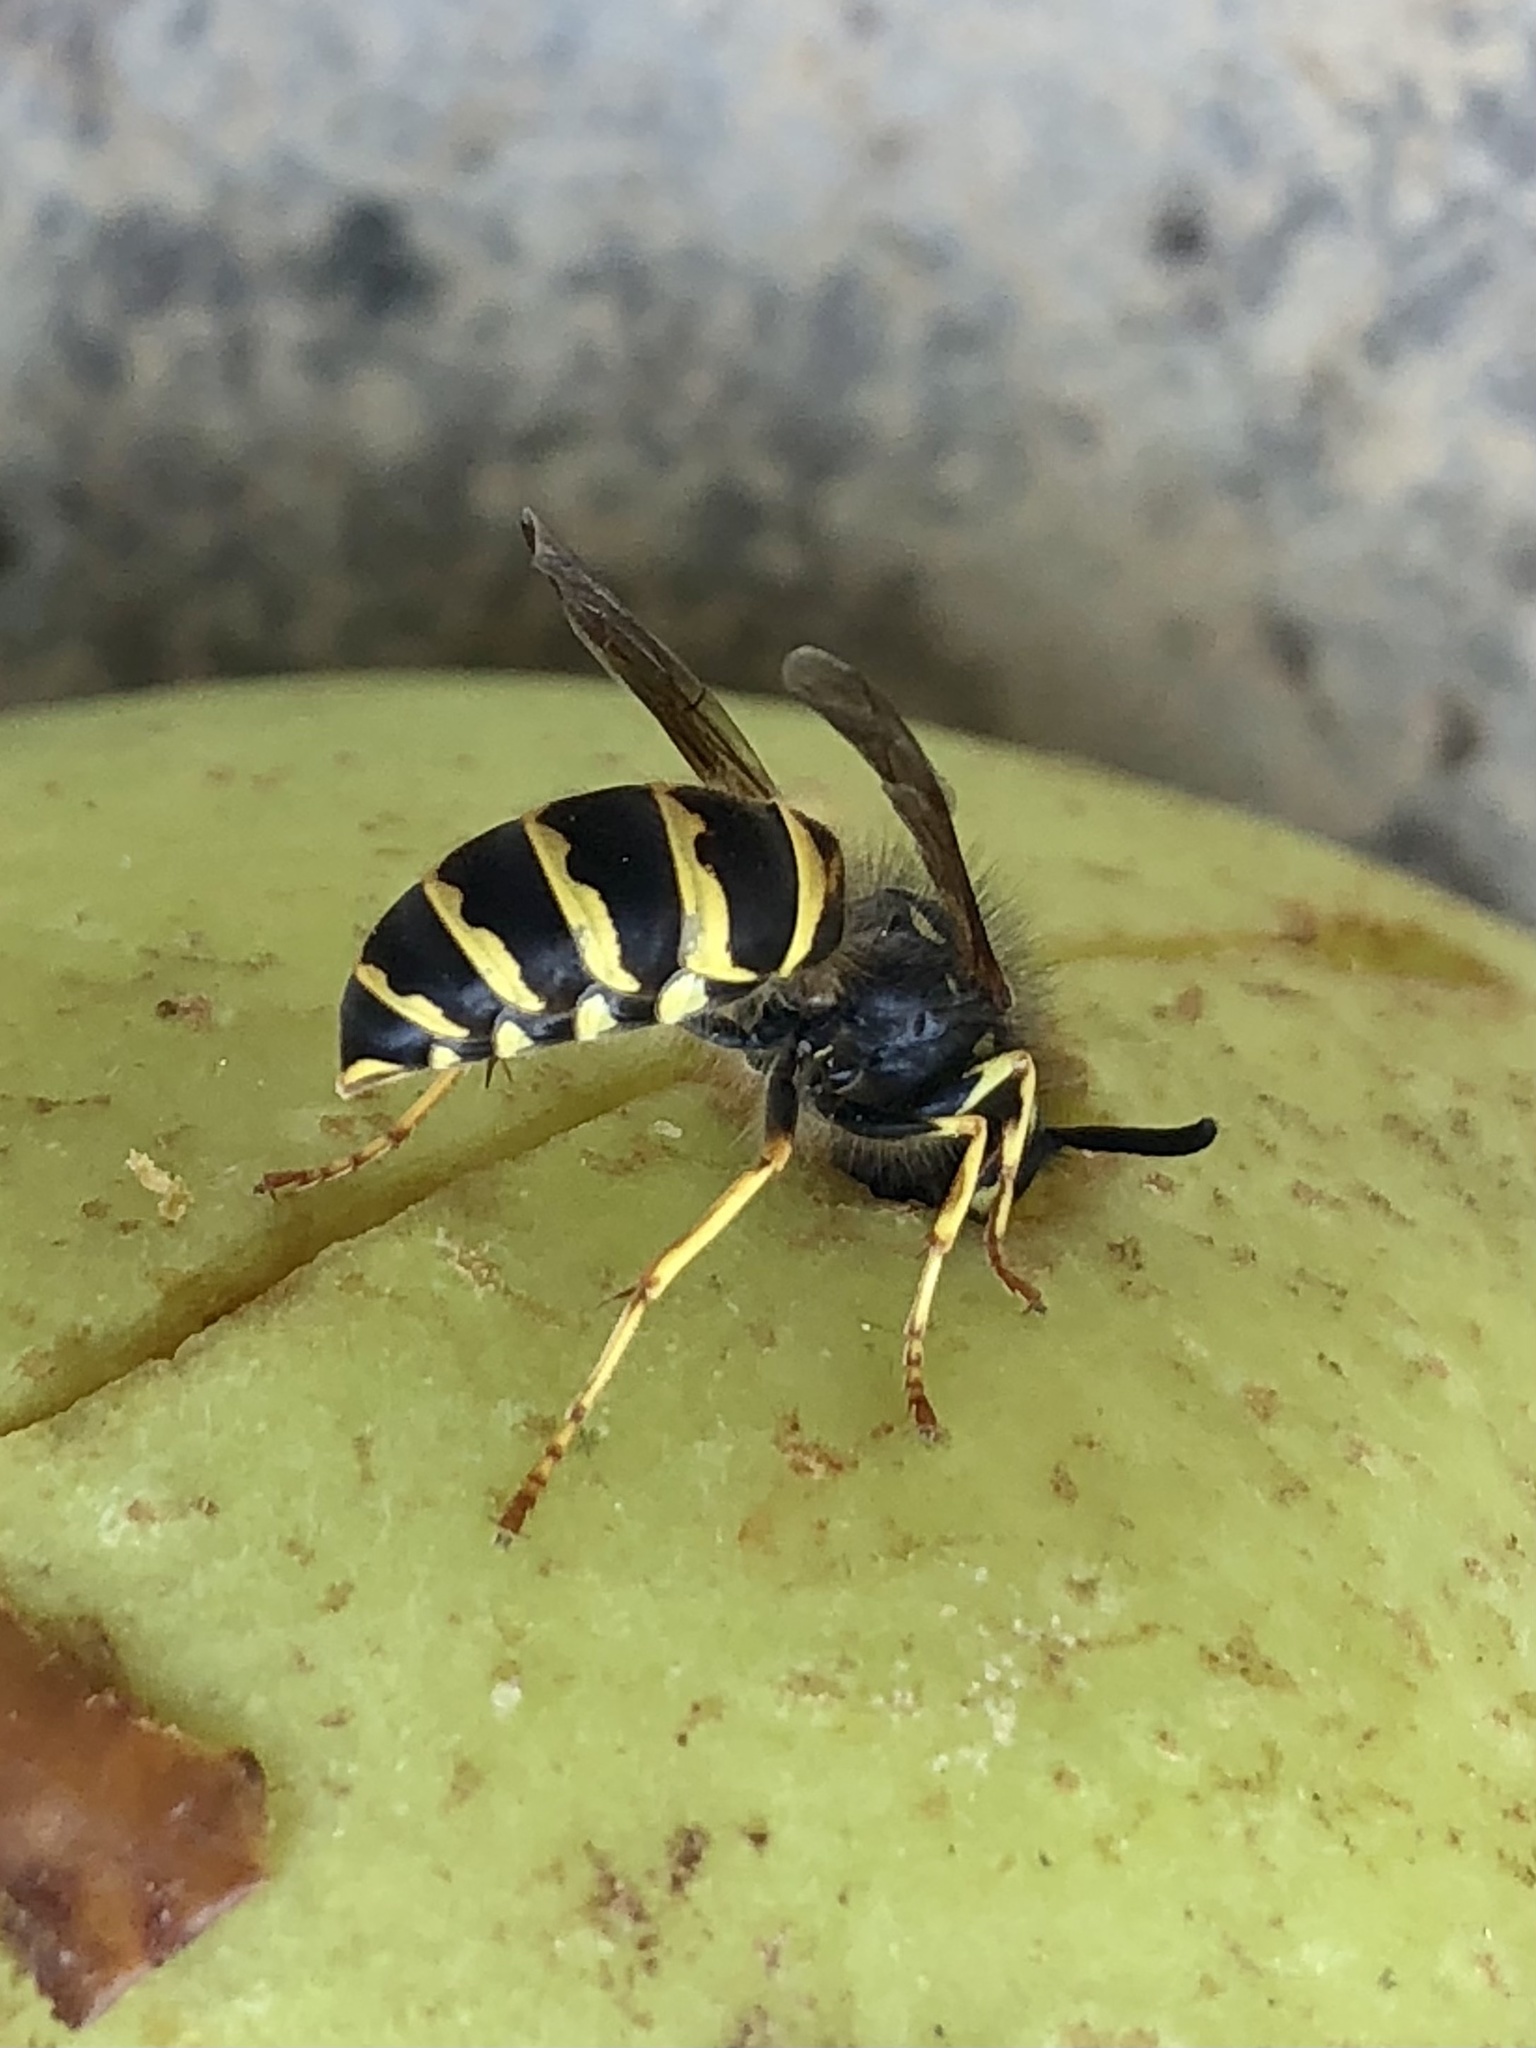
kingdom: Animalia
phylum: Arthropoda
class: Insecta
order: Hymenoptera
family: Vespidae
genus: Vespula
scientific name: Vespula alascensis
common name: Alaska yellowjacket
